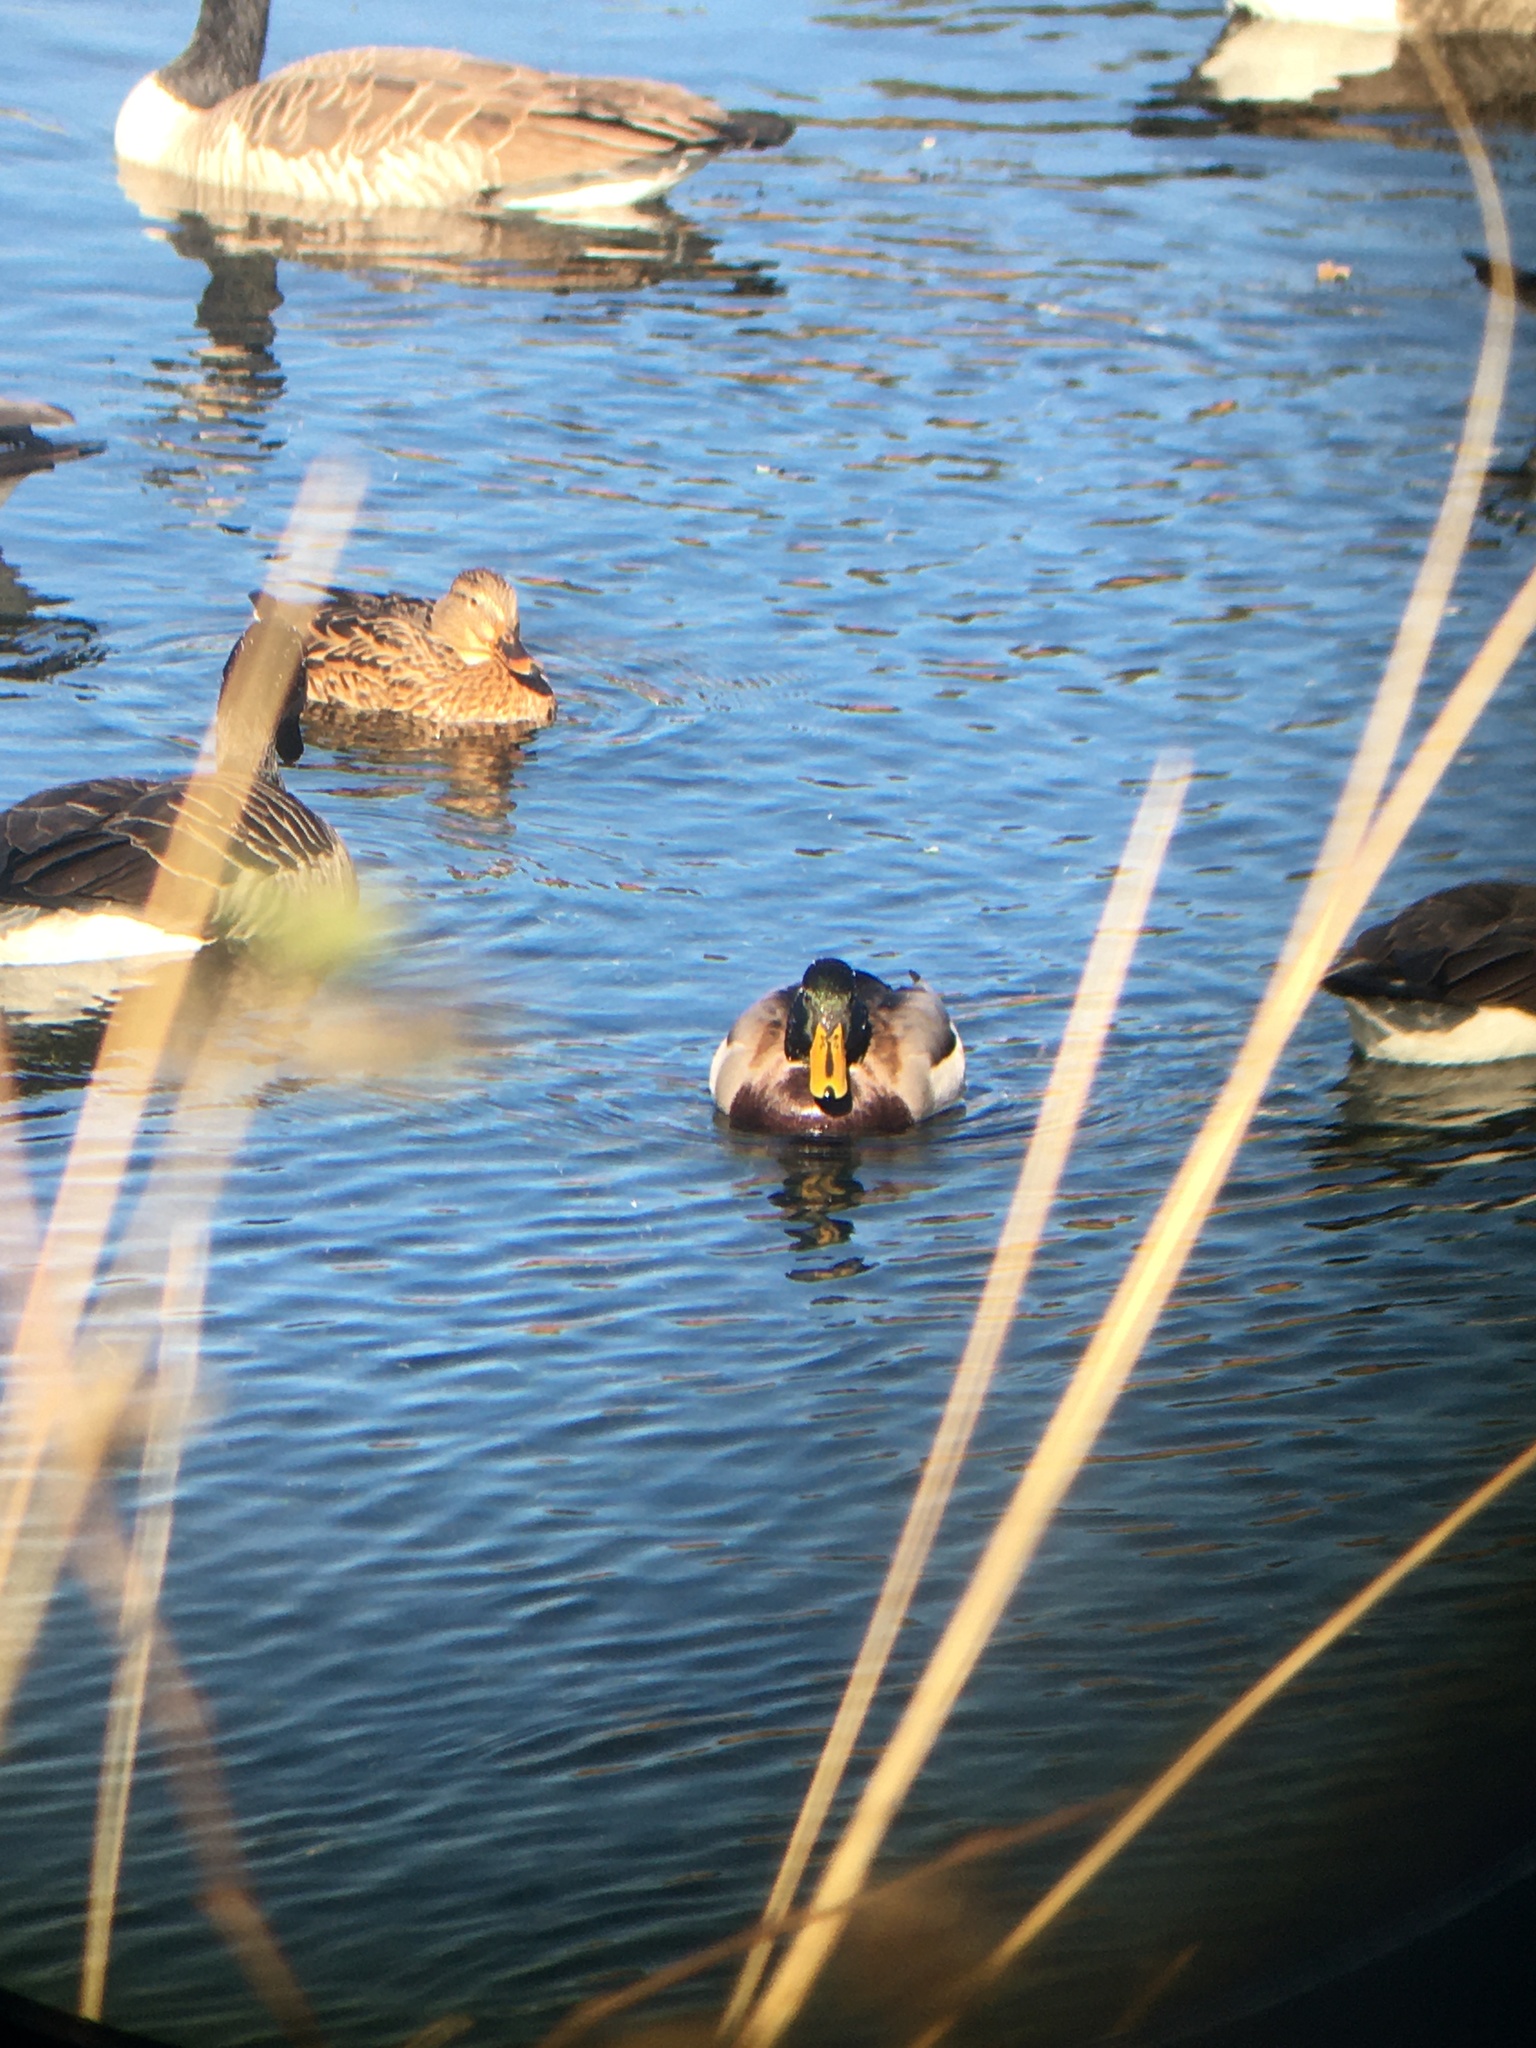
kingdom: Animalia
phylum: Chordata
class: Aves
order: Anseriformes
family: Anatidae
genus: Anas
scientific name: Anas platyrhynchos
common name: Mallard
